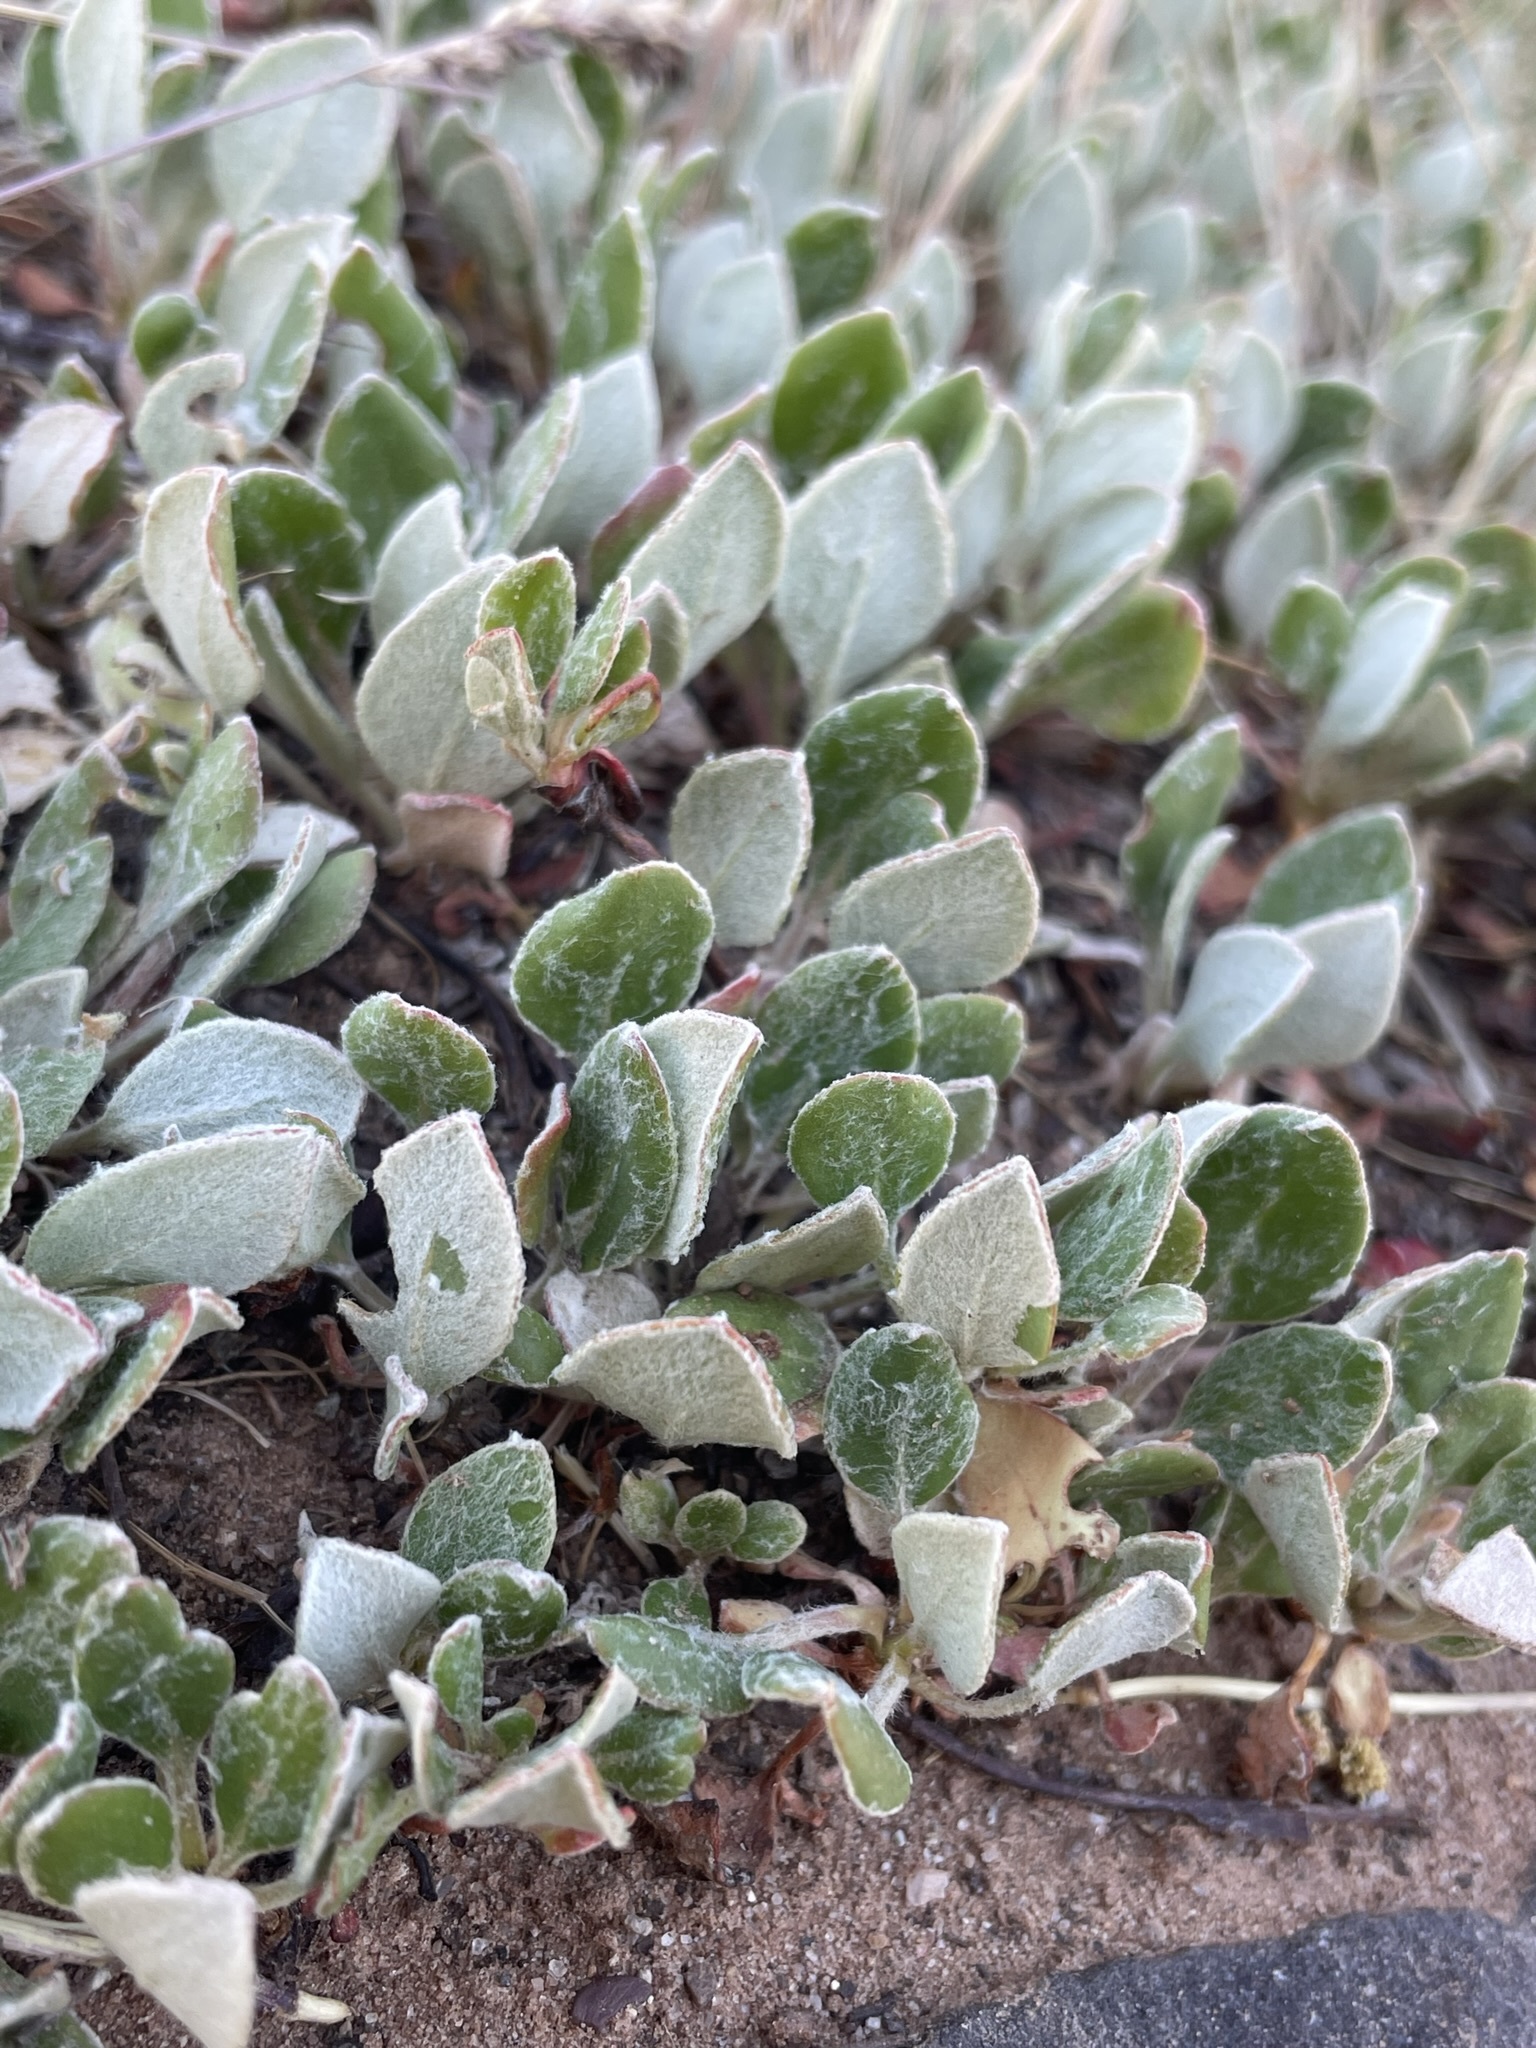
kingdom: Plantae
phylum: Tracheophyta
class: Magnoliopsida
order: Caryophyllales
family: Polygonaceae
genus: Eriogonum
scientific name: Eriogonum umbellatum
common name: Sulfur-buckwheat
